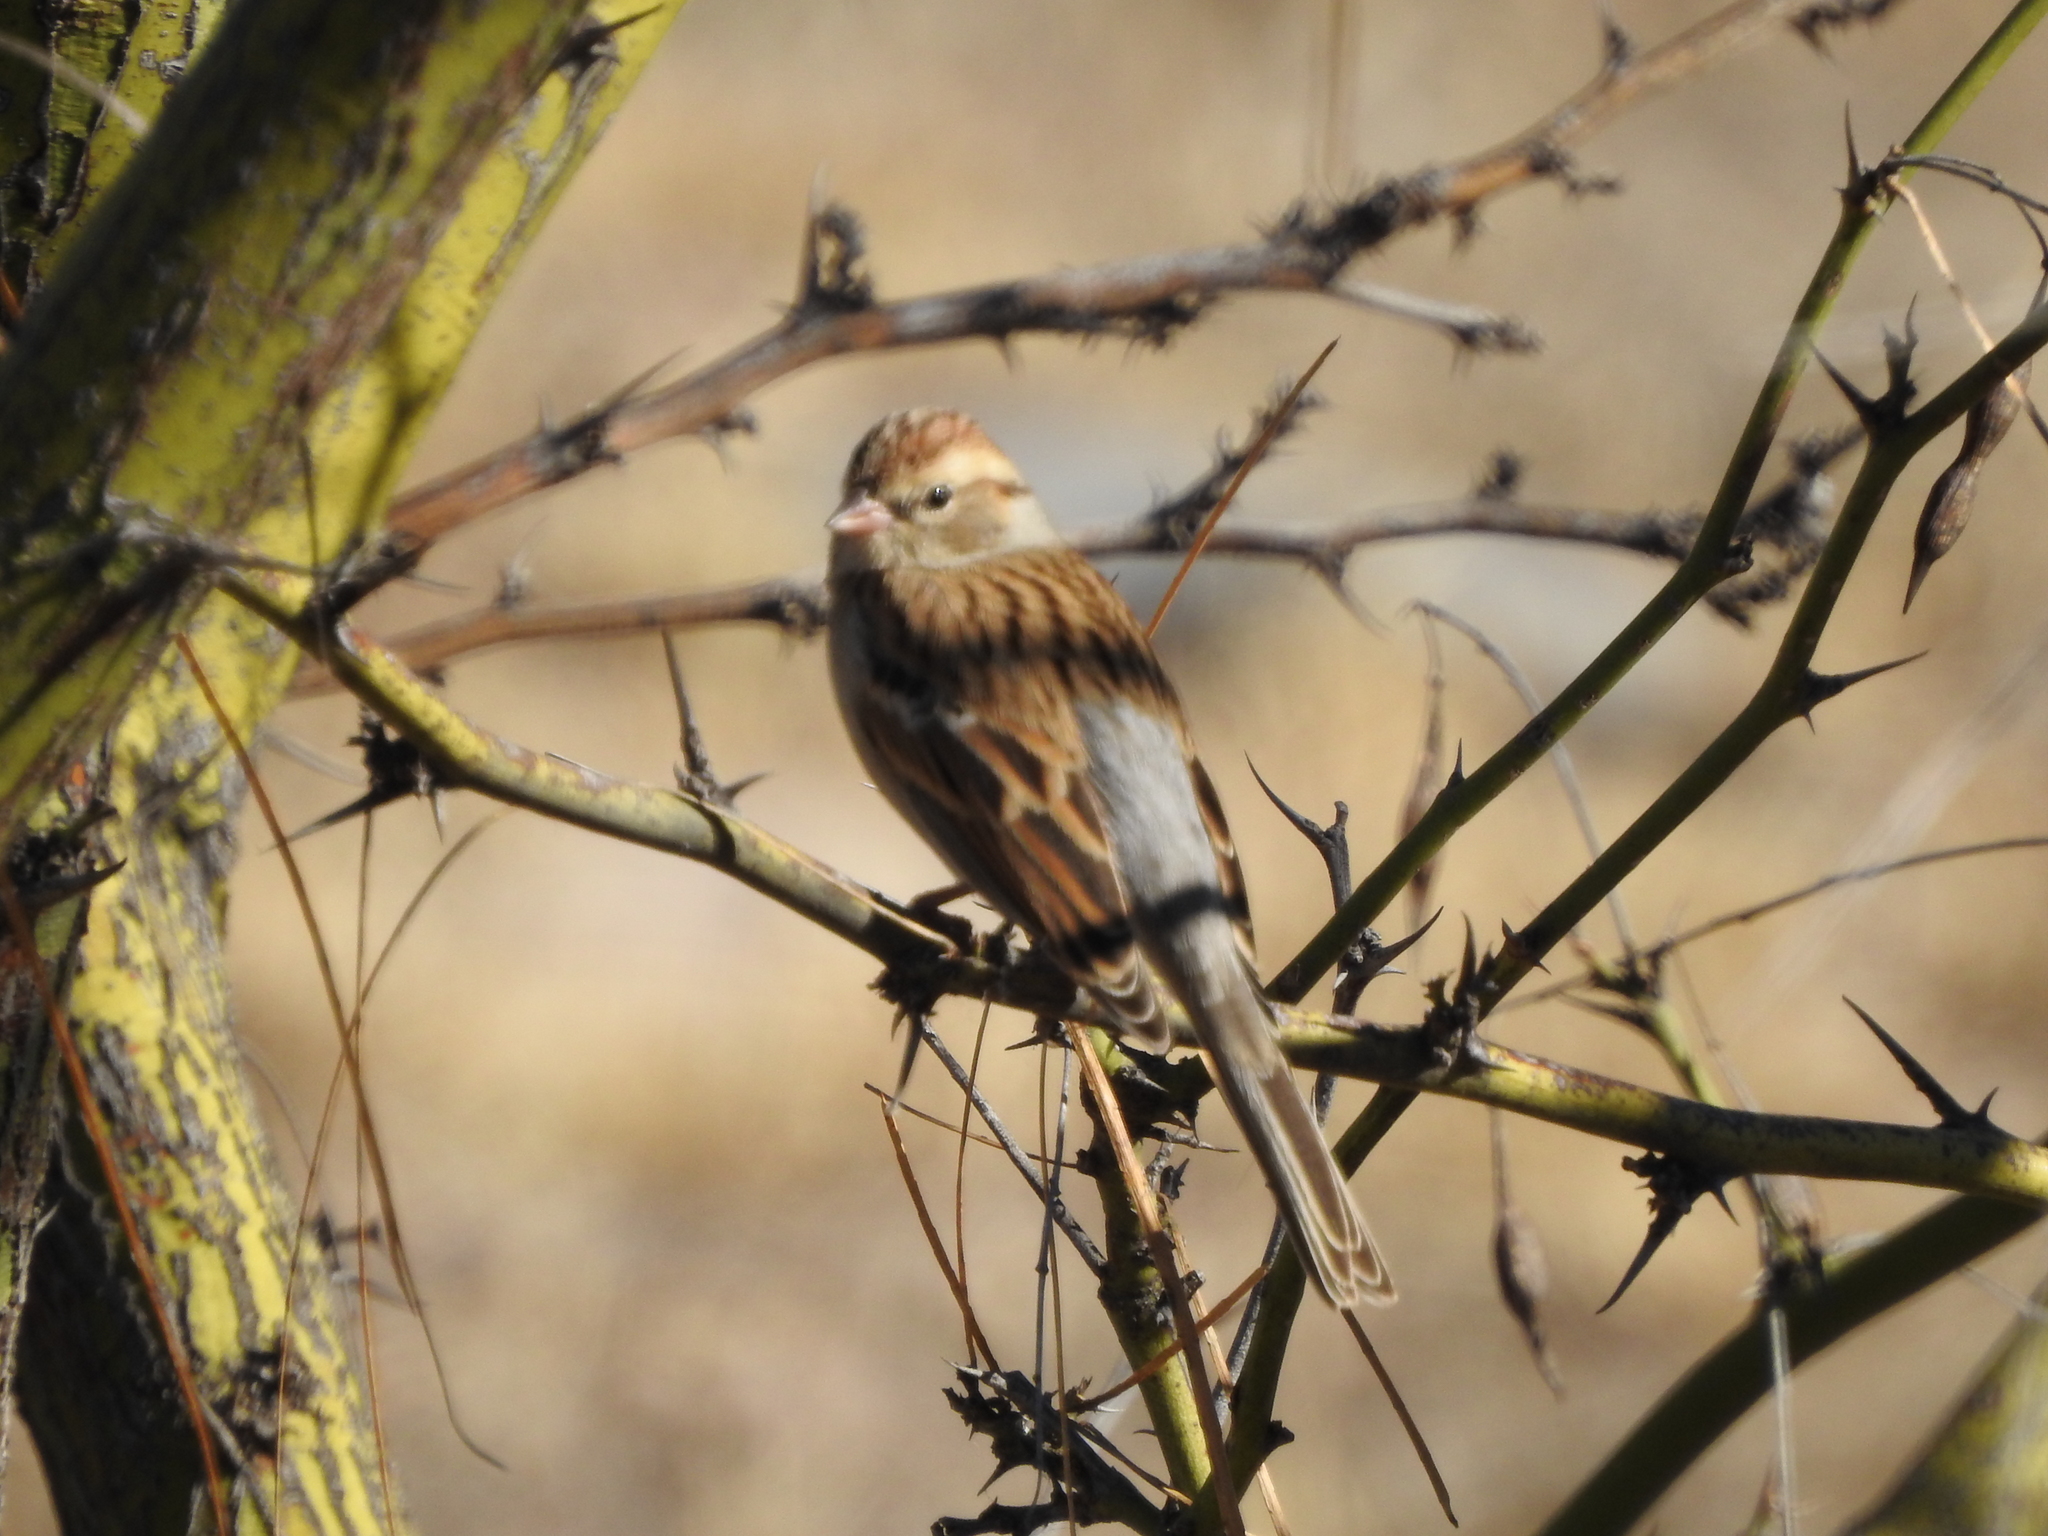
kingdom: Animalia
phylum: Chordata
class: Aves
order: Passeriformes
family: Passerellidae
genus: Spizella
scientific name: Spizella passerina
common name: Chipping sparrow
